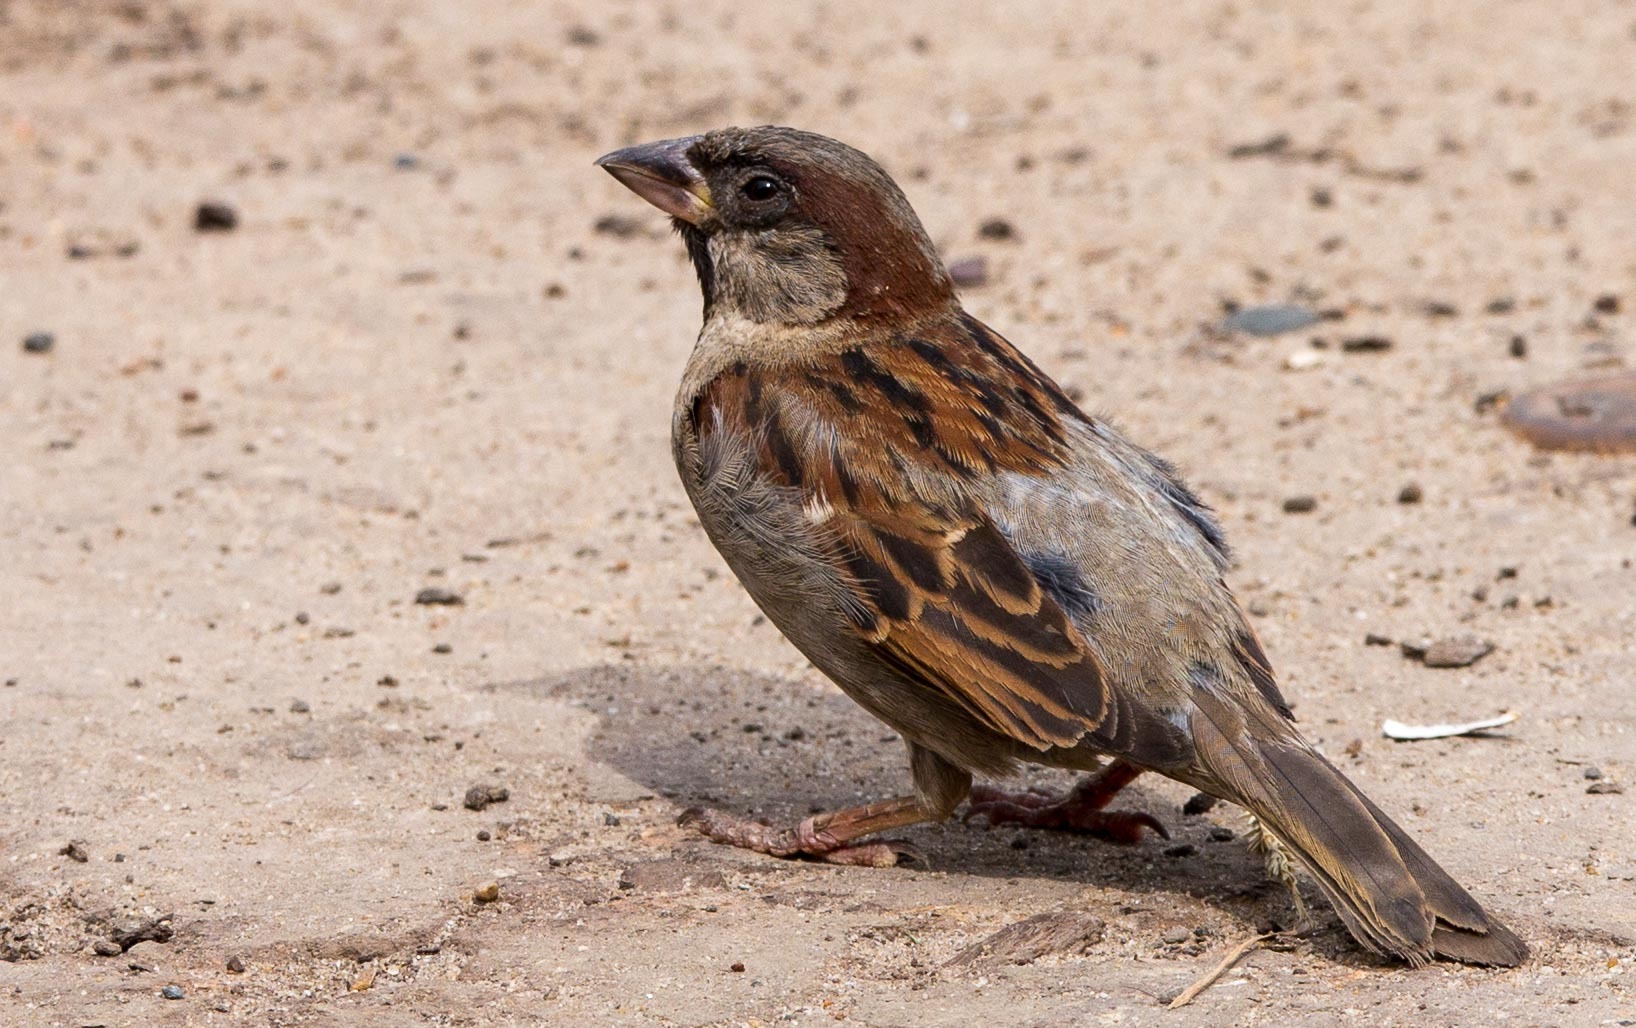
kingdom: Animalia
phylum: Chordata
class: Aves
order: Passeriformes
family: Passeridae
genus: Passer
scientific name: Passer domesticus
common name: House sparrow
